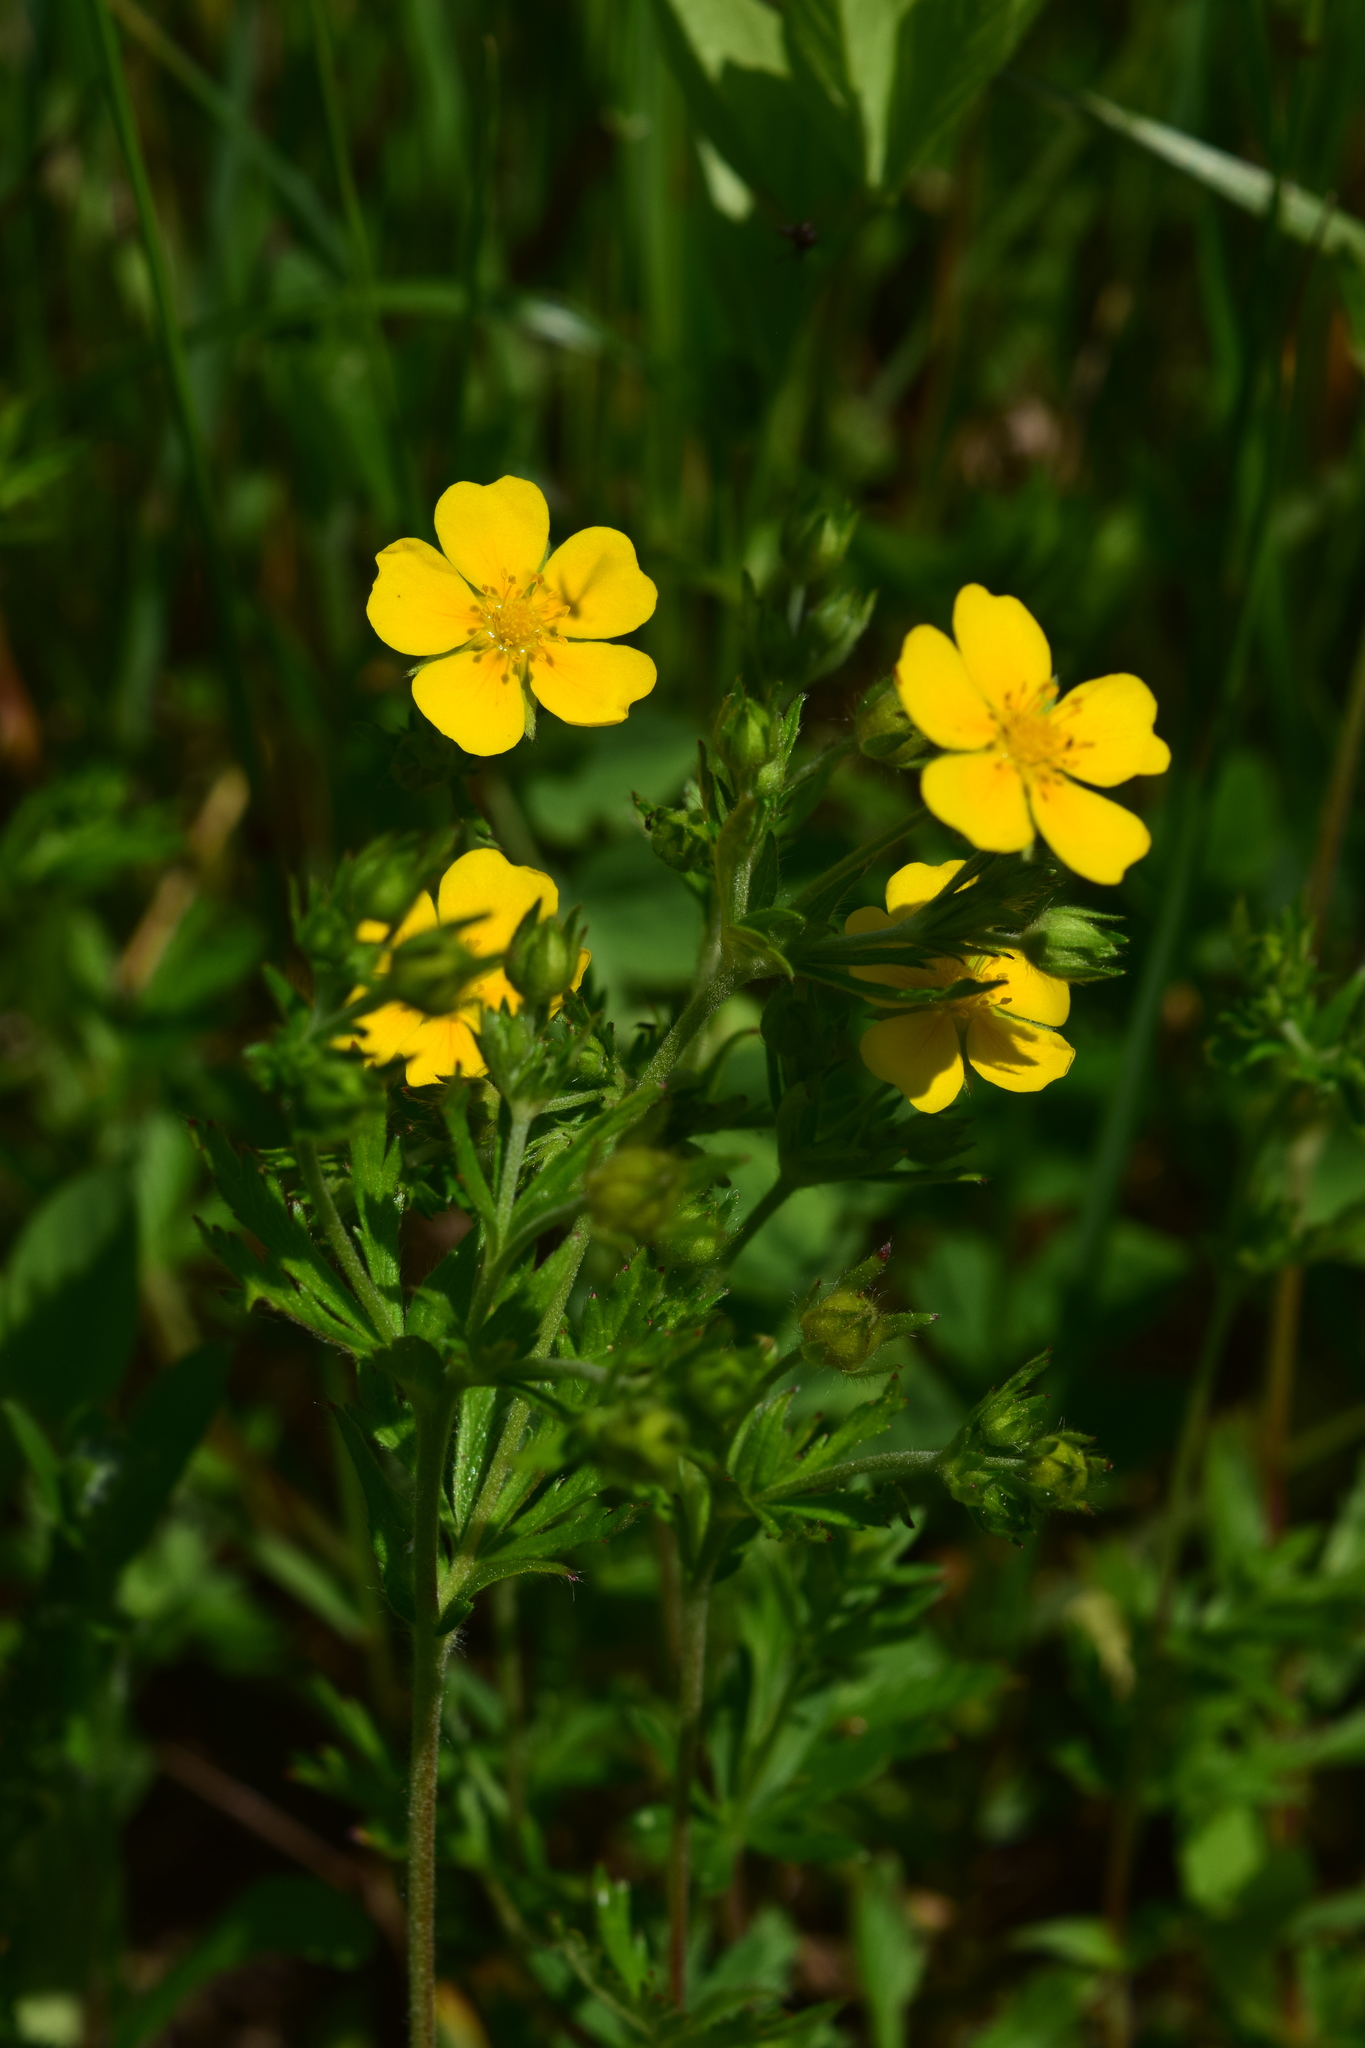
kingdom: Plantae
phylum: Tracheophyta
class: Magnoliopsida
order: Rosales
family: Rosaceae
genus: Potentilla
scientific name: Potentilla thuringiaca
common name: European cinquefoil
